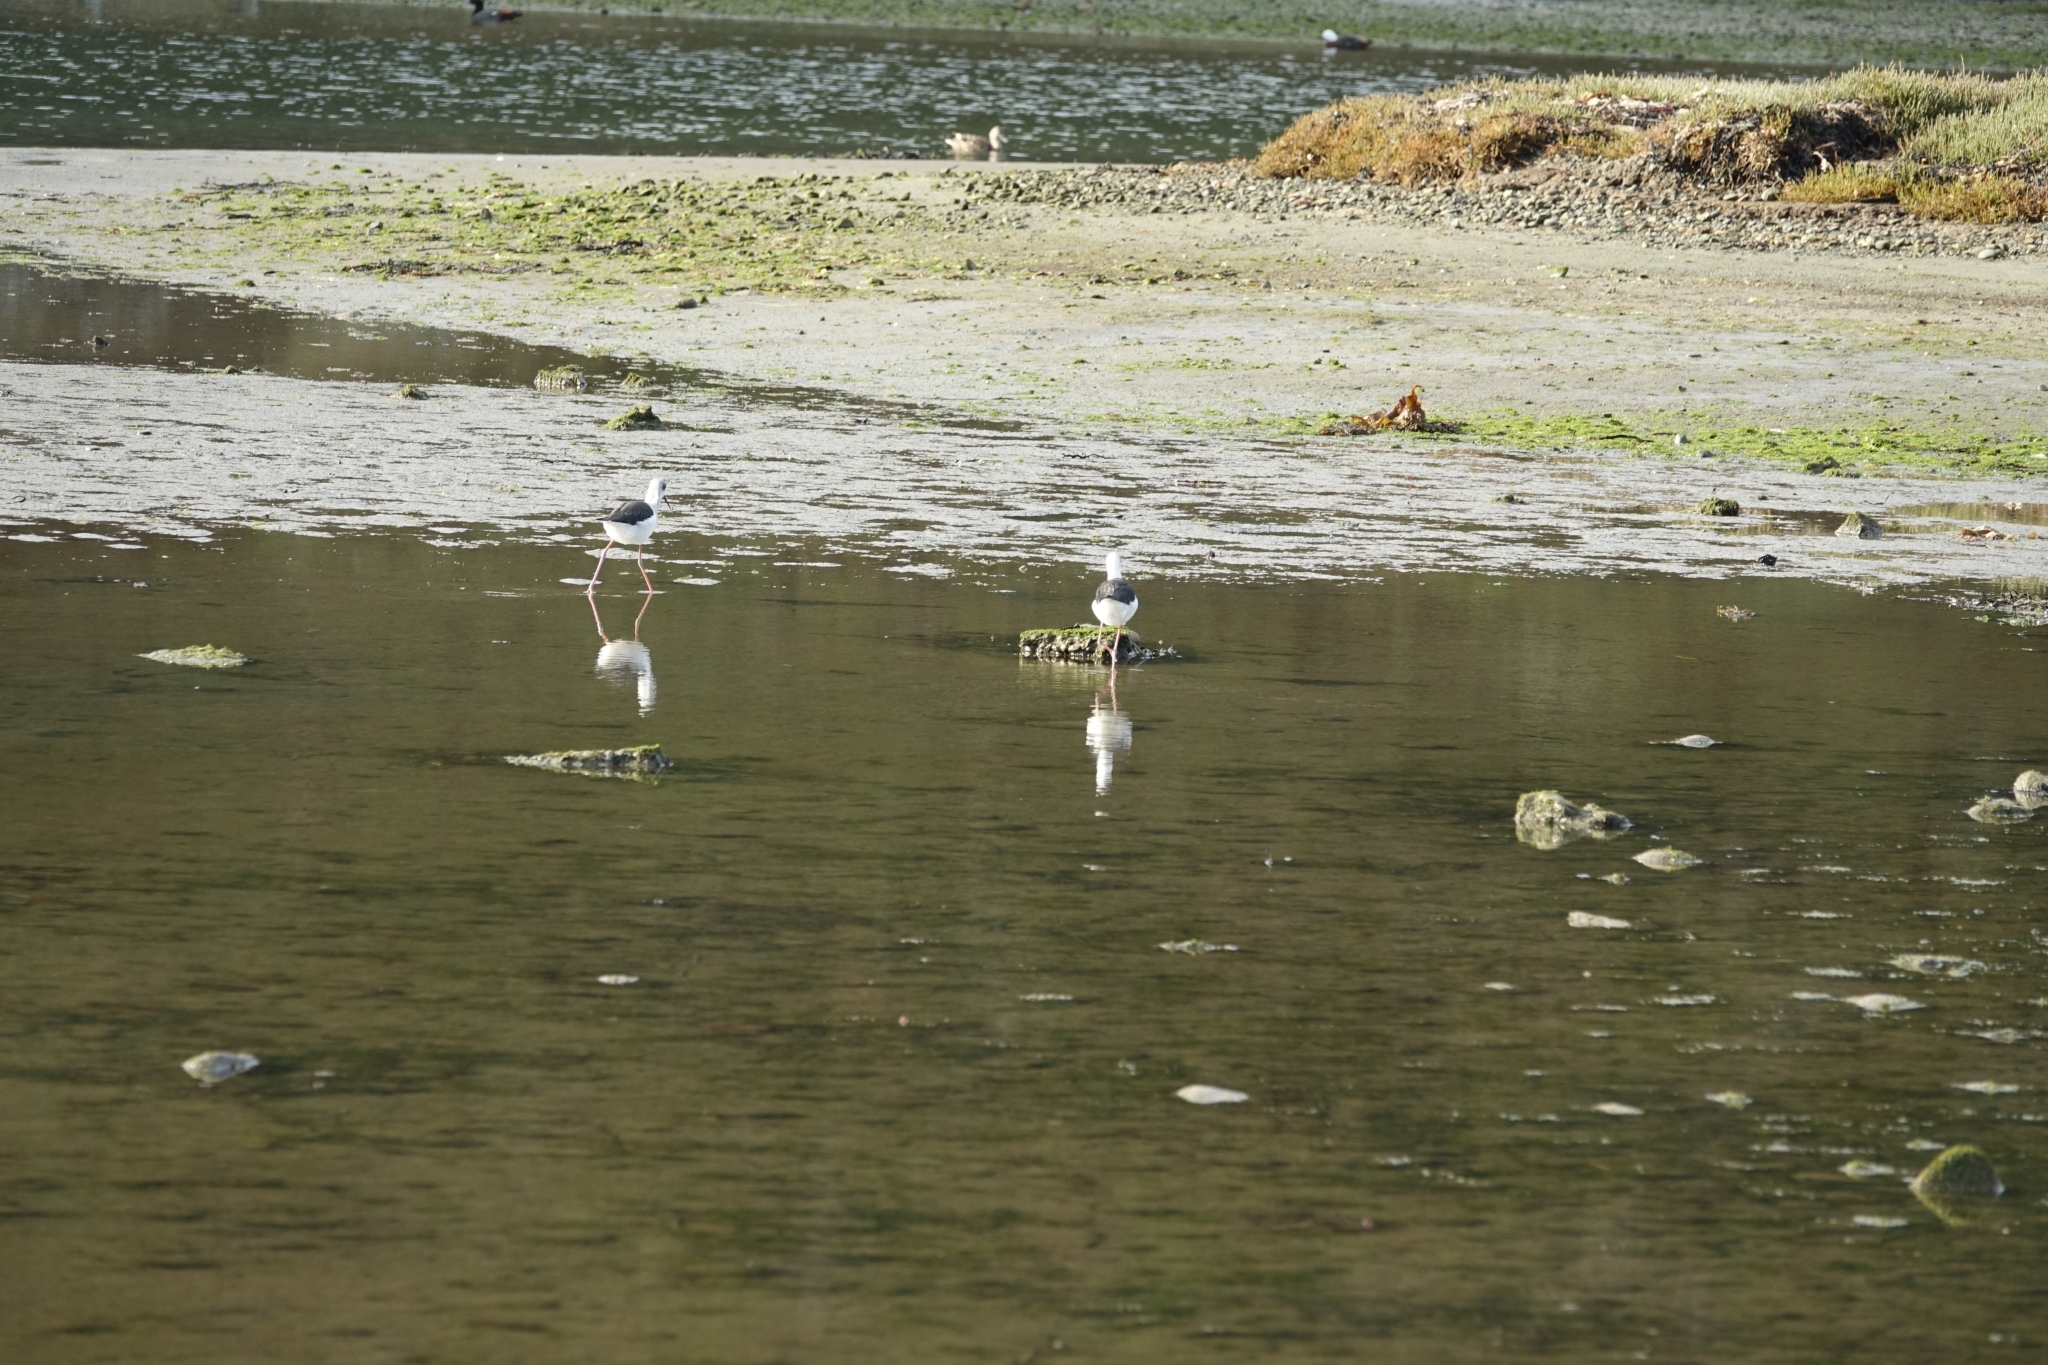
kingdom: Animalia
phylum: Chordata
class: Aves
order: Charadriiformes
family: Recurvirostridae
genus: Himantopus
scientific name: Himantopus leucocephalus
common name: White-headed stilt
